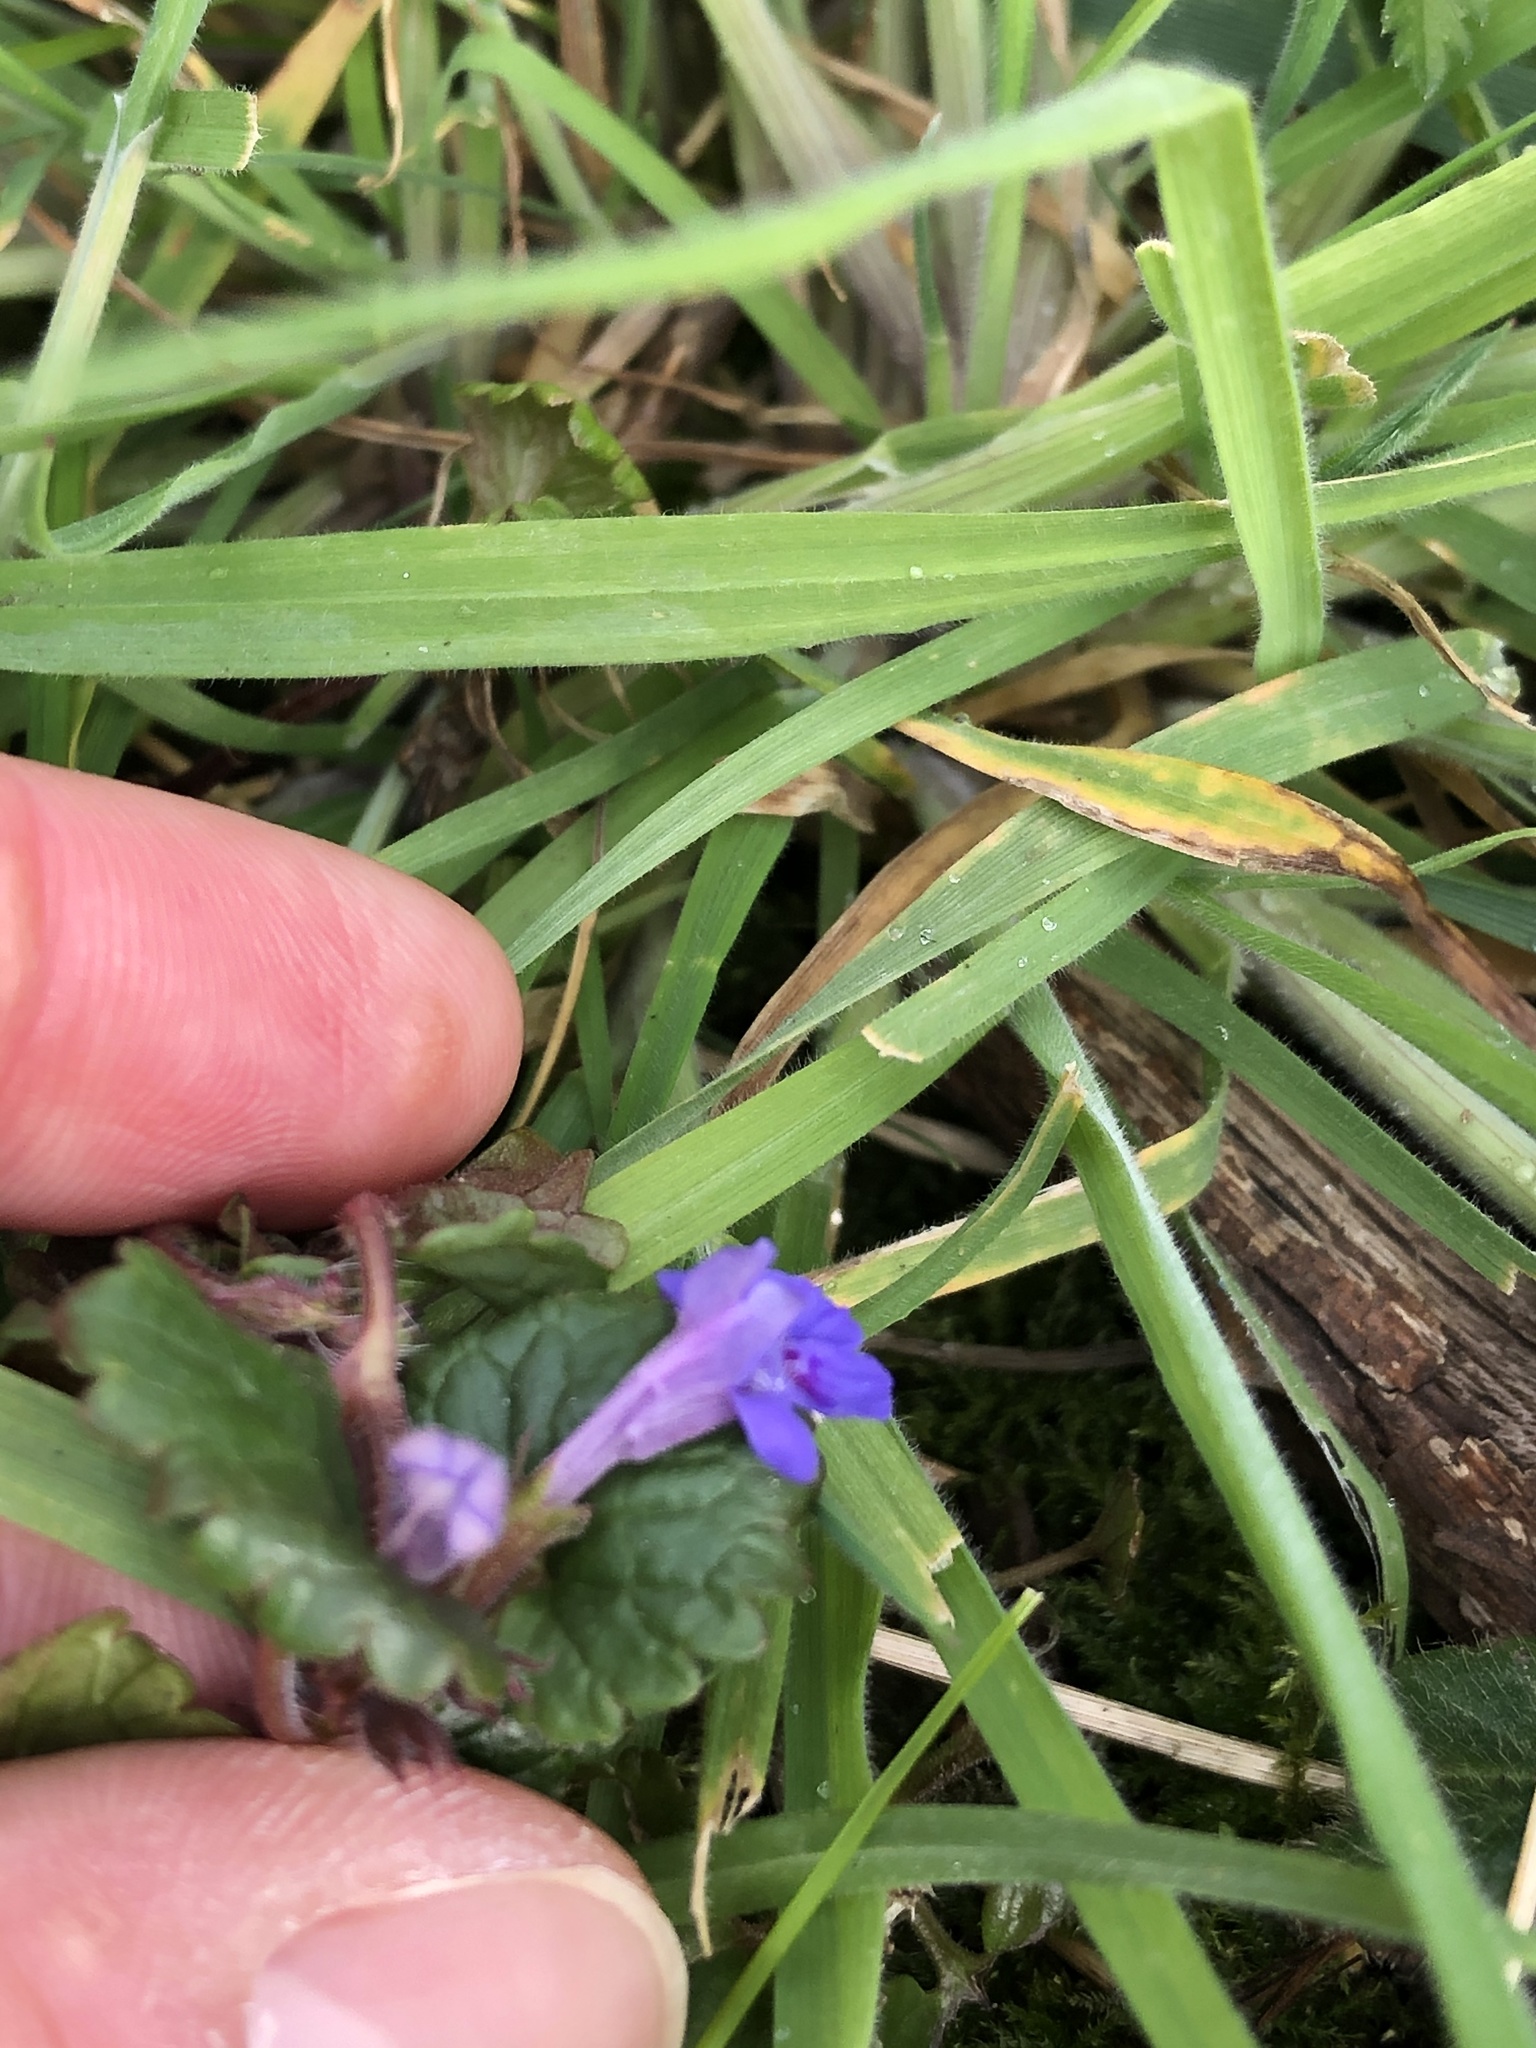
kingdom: Plantae
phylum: Tracheophyta
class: Magnoliopsida
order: Lamiales
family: Lamiaceae
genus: Glechoma
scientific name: Glechoma hederacea
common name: Ground ivy
